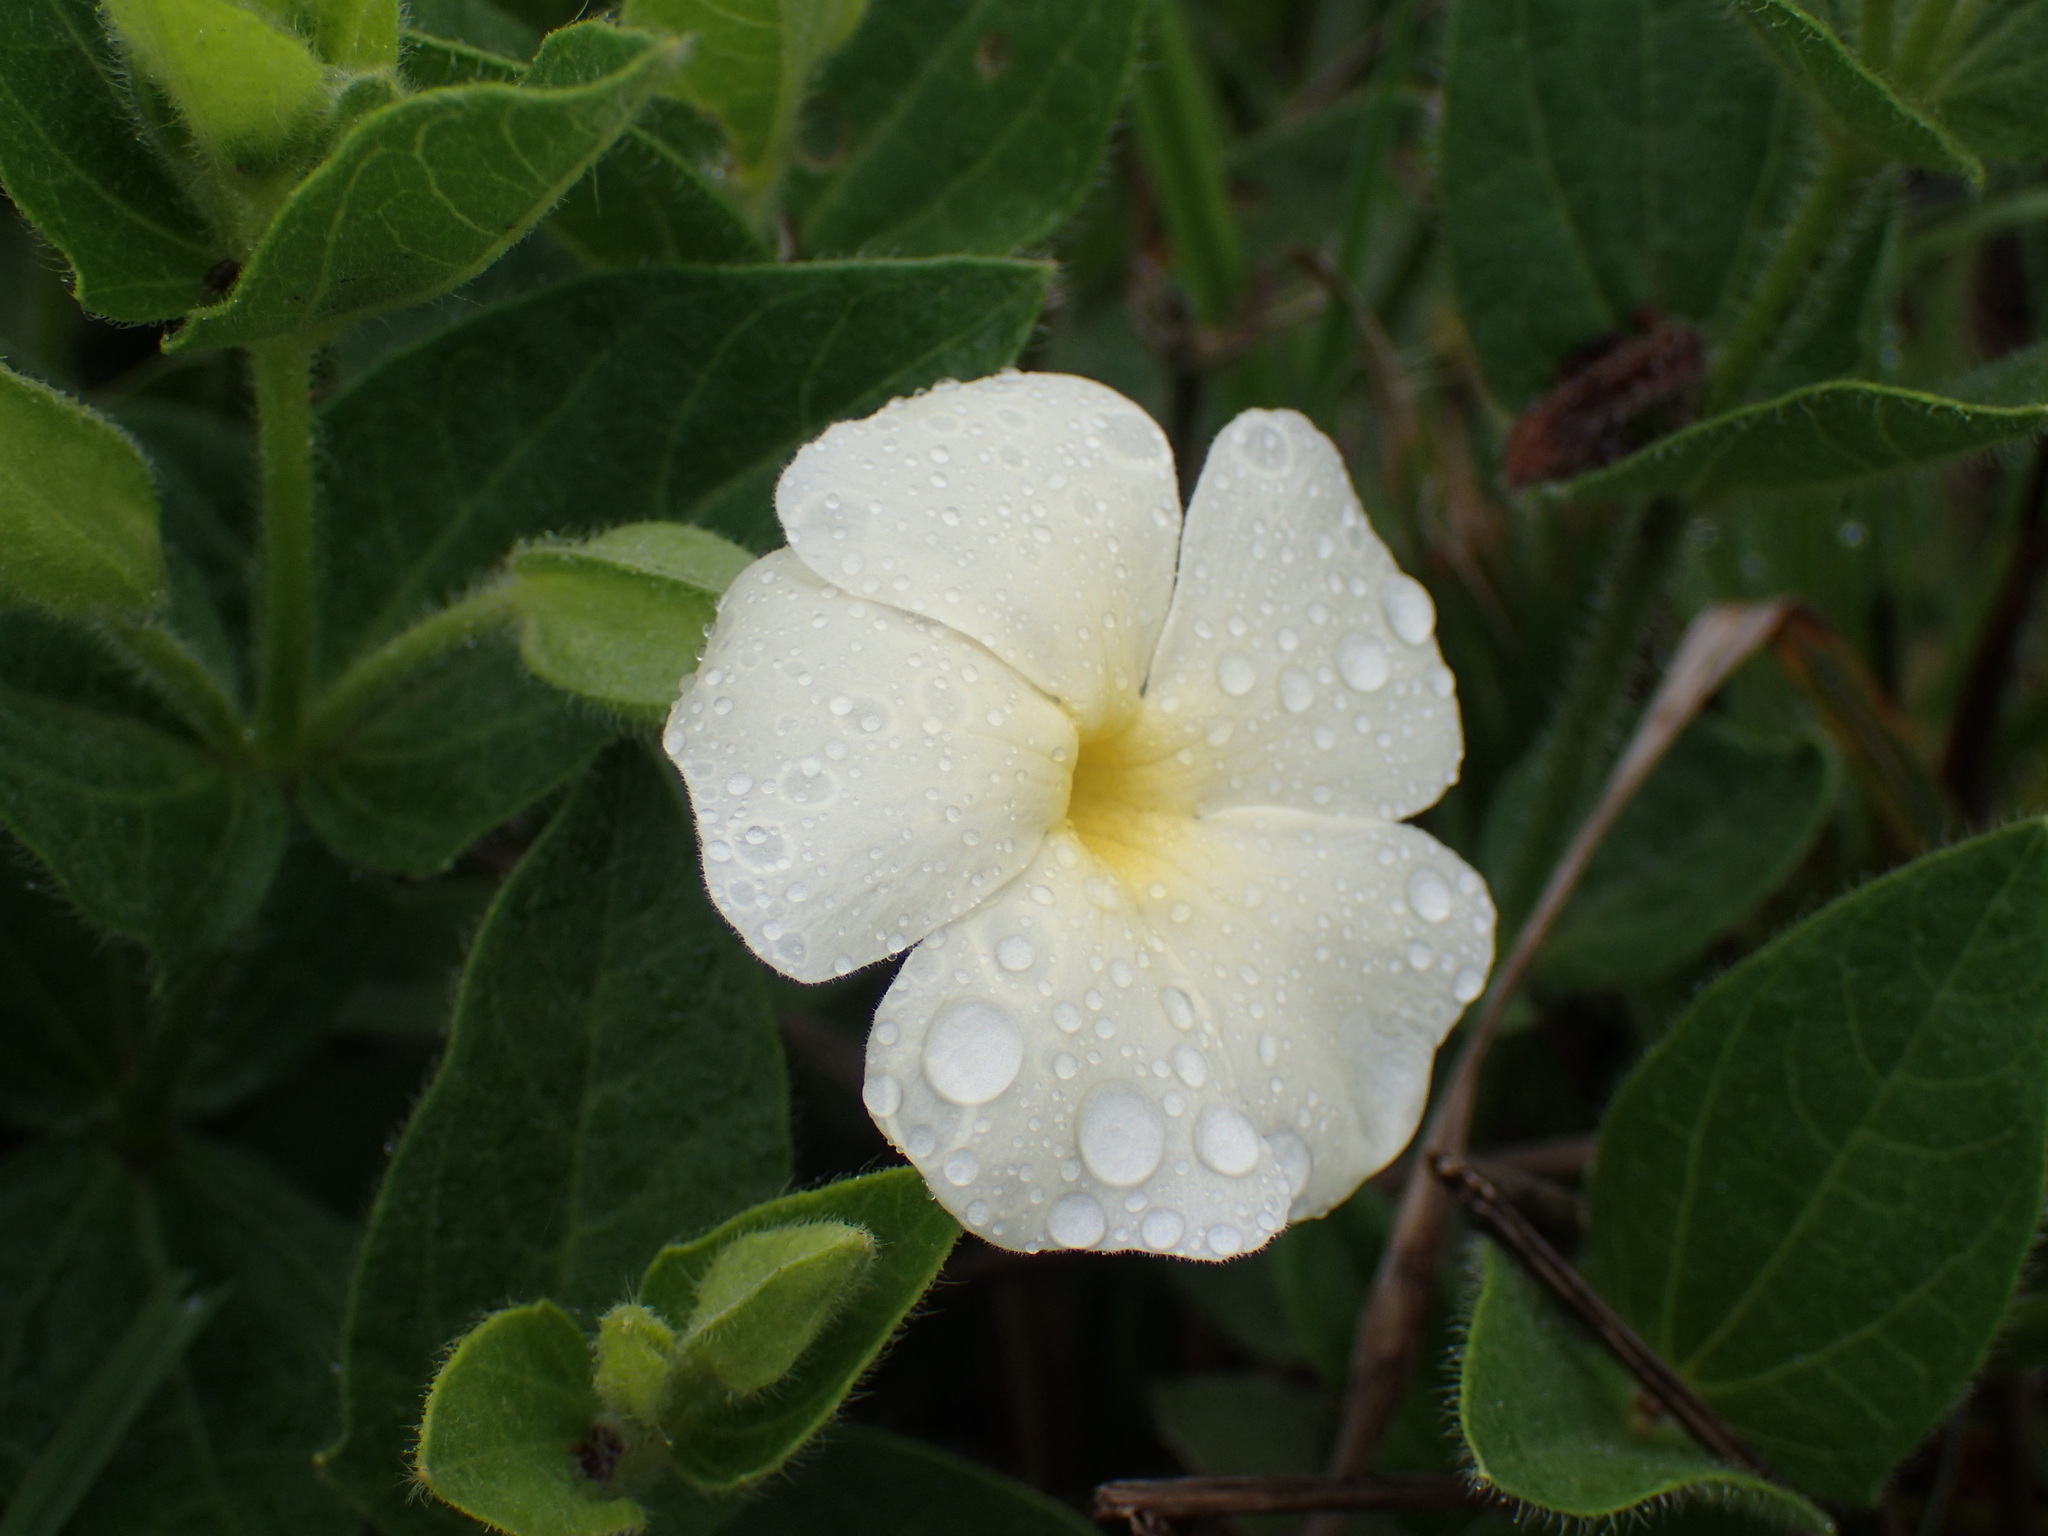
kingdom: Plantae
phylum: Tracheophyta
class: Magnoliopsida
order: Lamiales
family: Acanthaceae
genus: Thunbergia
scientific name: Thunbergia atriplicifolia
